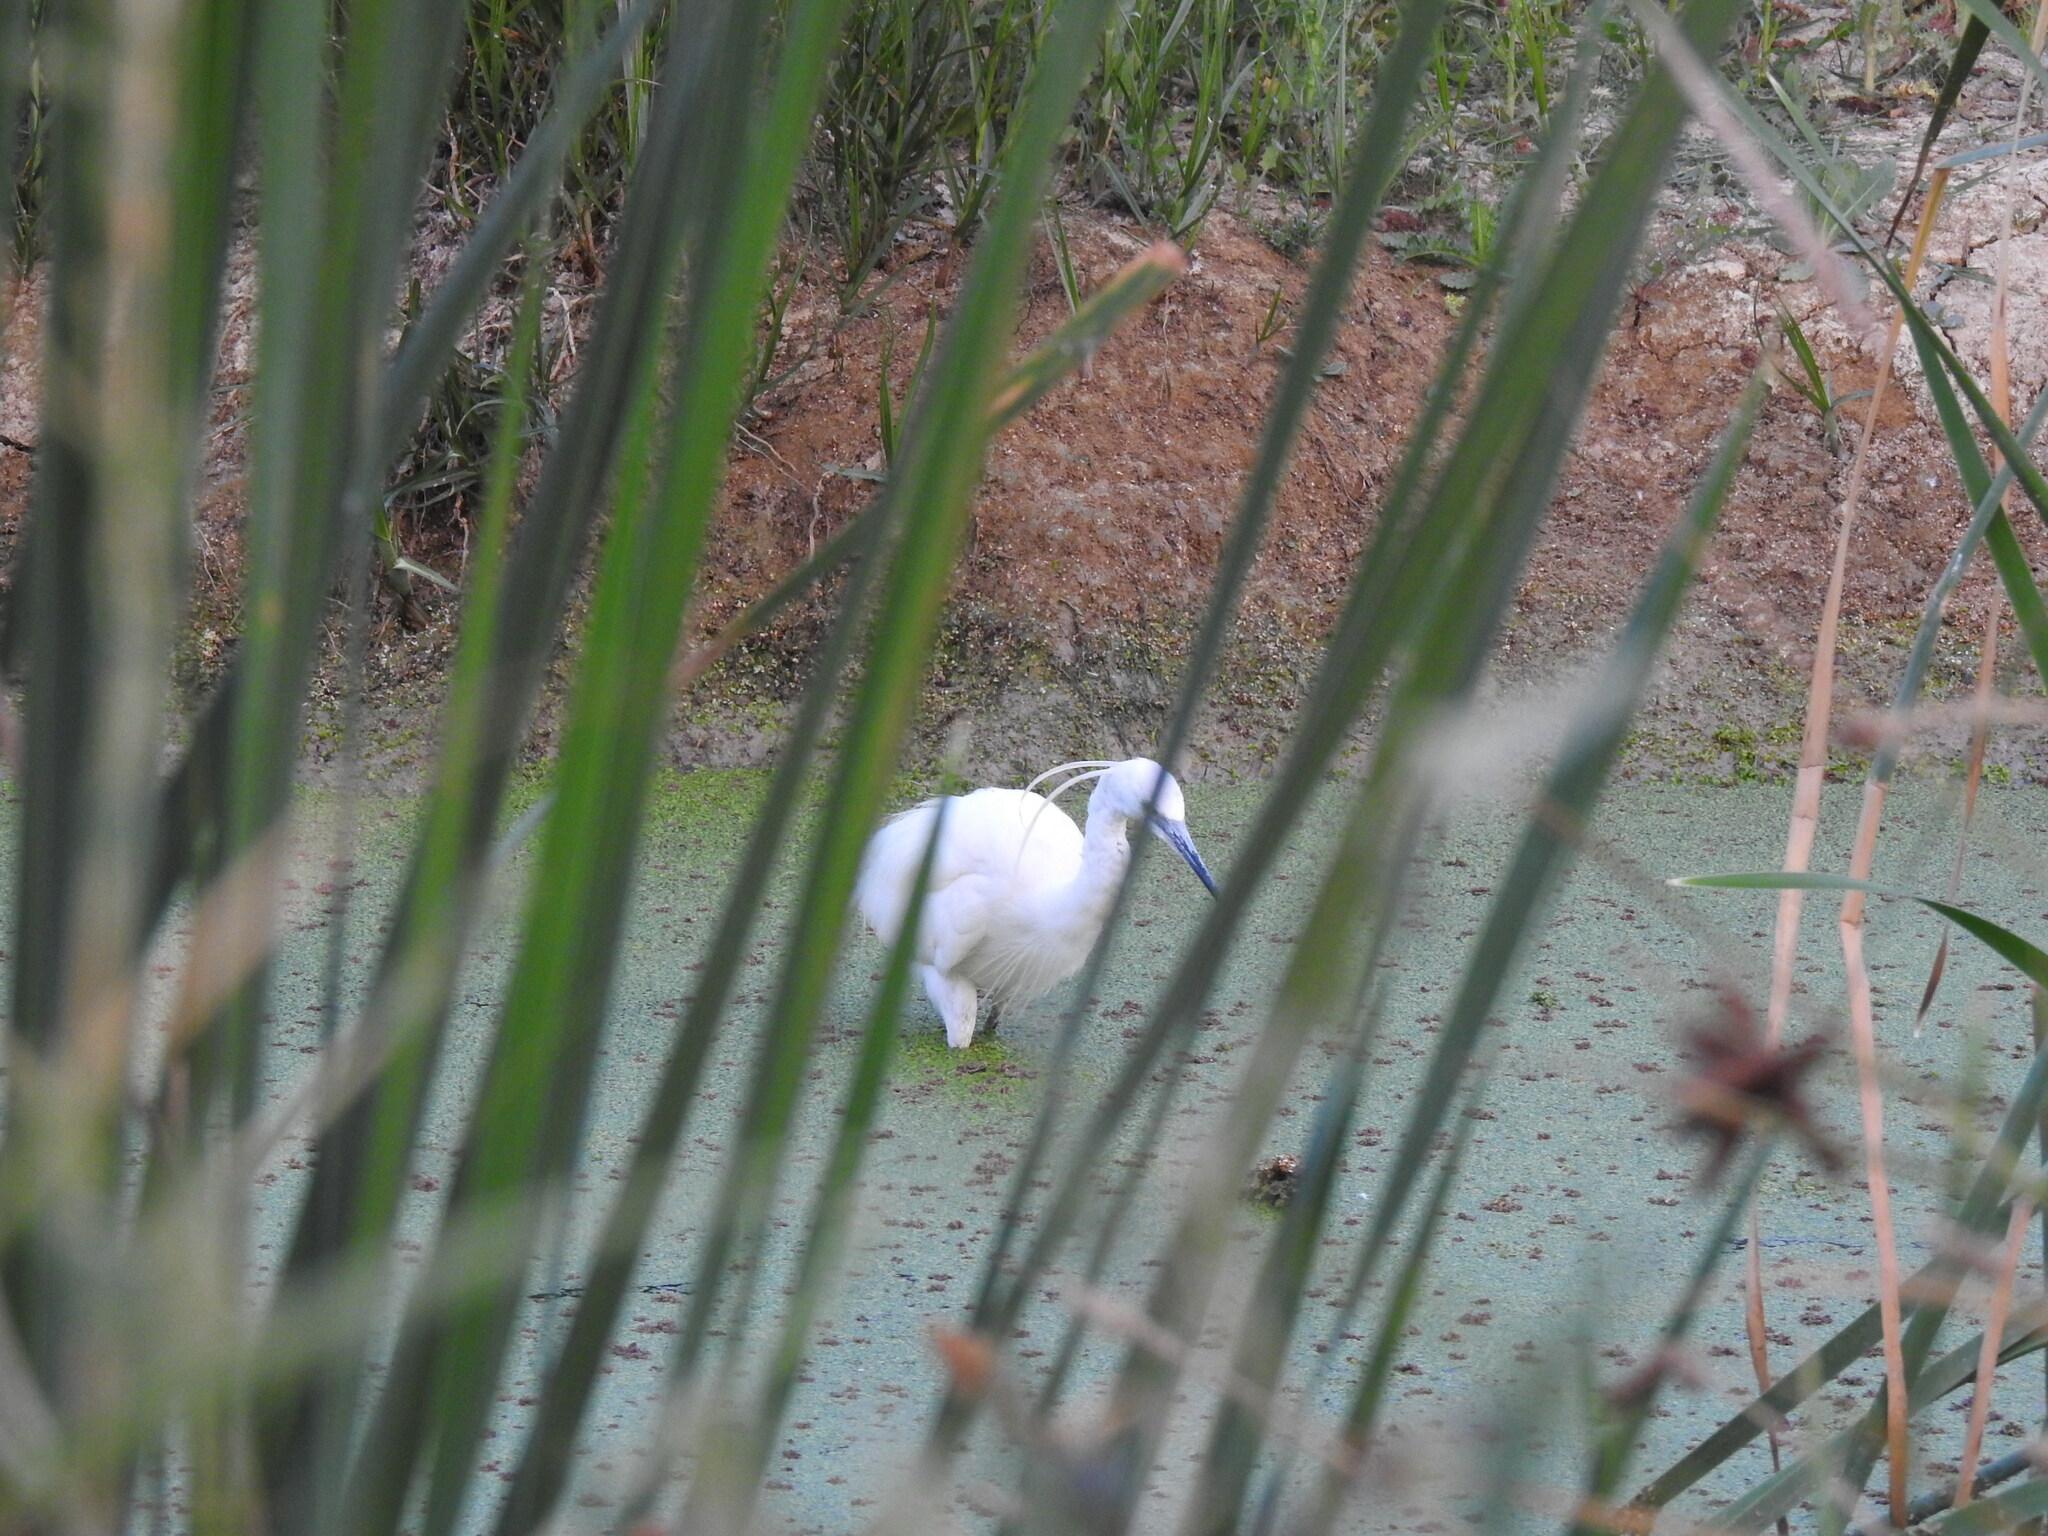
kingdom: Animalia
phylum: Chordata
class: Aves
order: Pelecaniformes
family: Ardeidae
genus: Egretta
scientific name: Egretta garzetta
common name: Little egret
